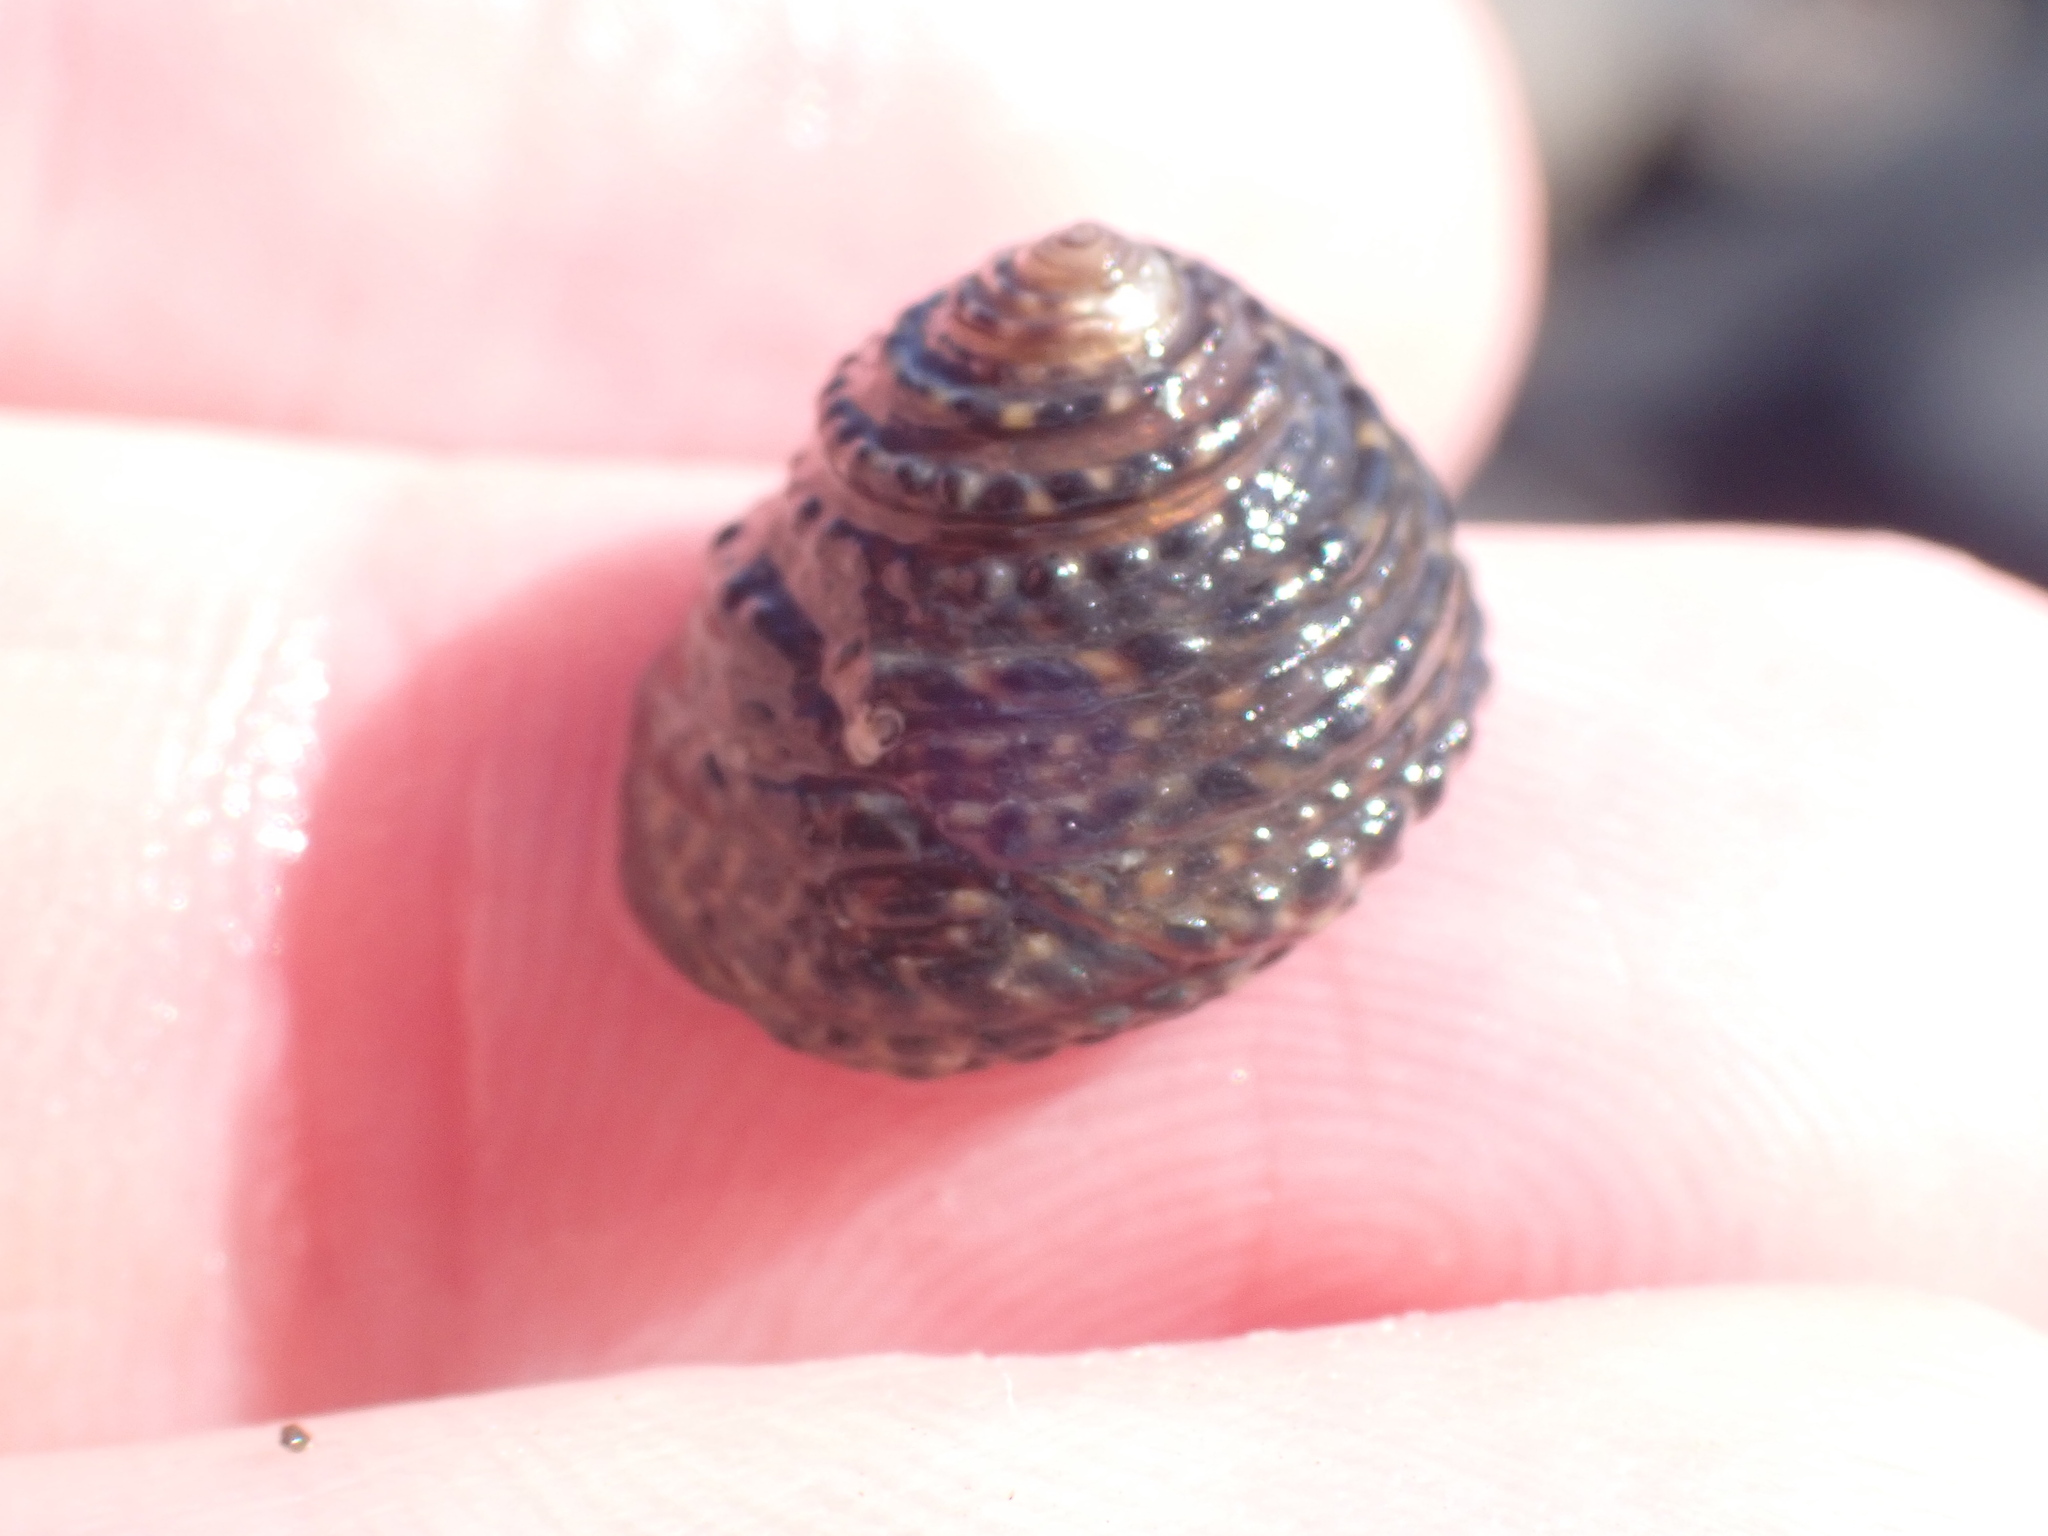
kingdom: Animalia
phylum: Mollusca
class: Gastropoda
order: Trochida
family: Trochidae
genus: Diloma
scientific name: Diloma bicanaliculatum
